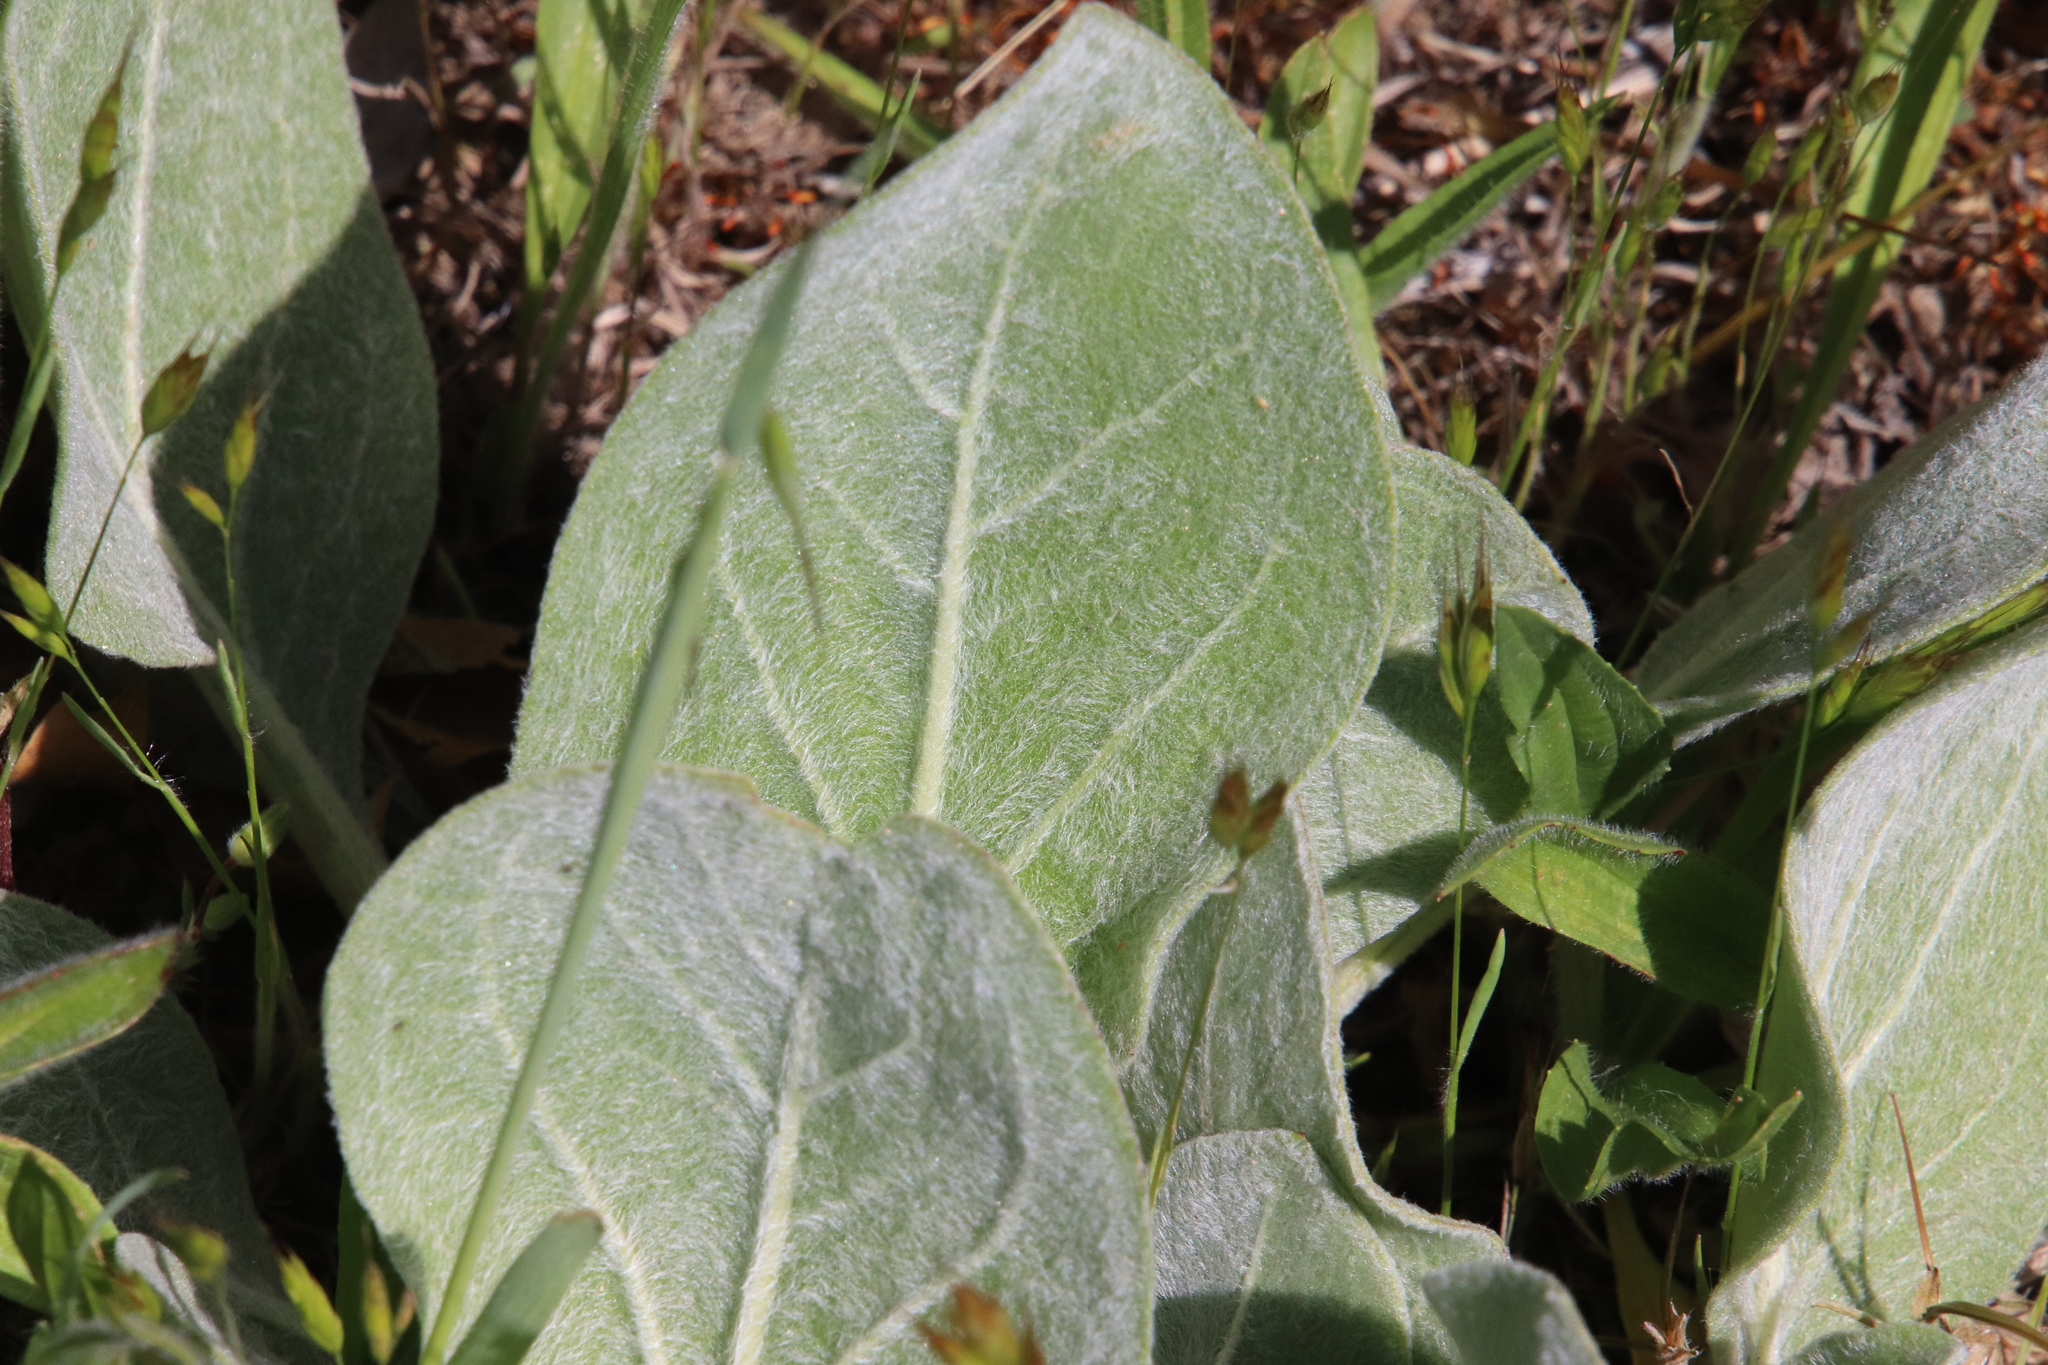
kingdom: Plantae
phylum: Tracheophyta
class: Magnoliopsida
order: Asterales
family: Asteraceae
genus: Agnorhiza
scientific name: Agnorhiza ovata
